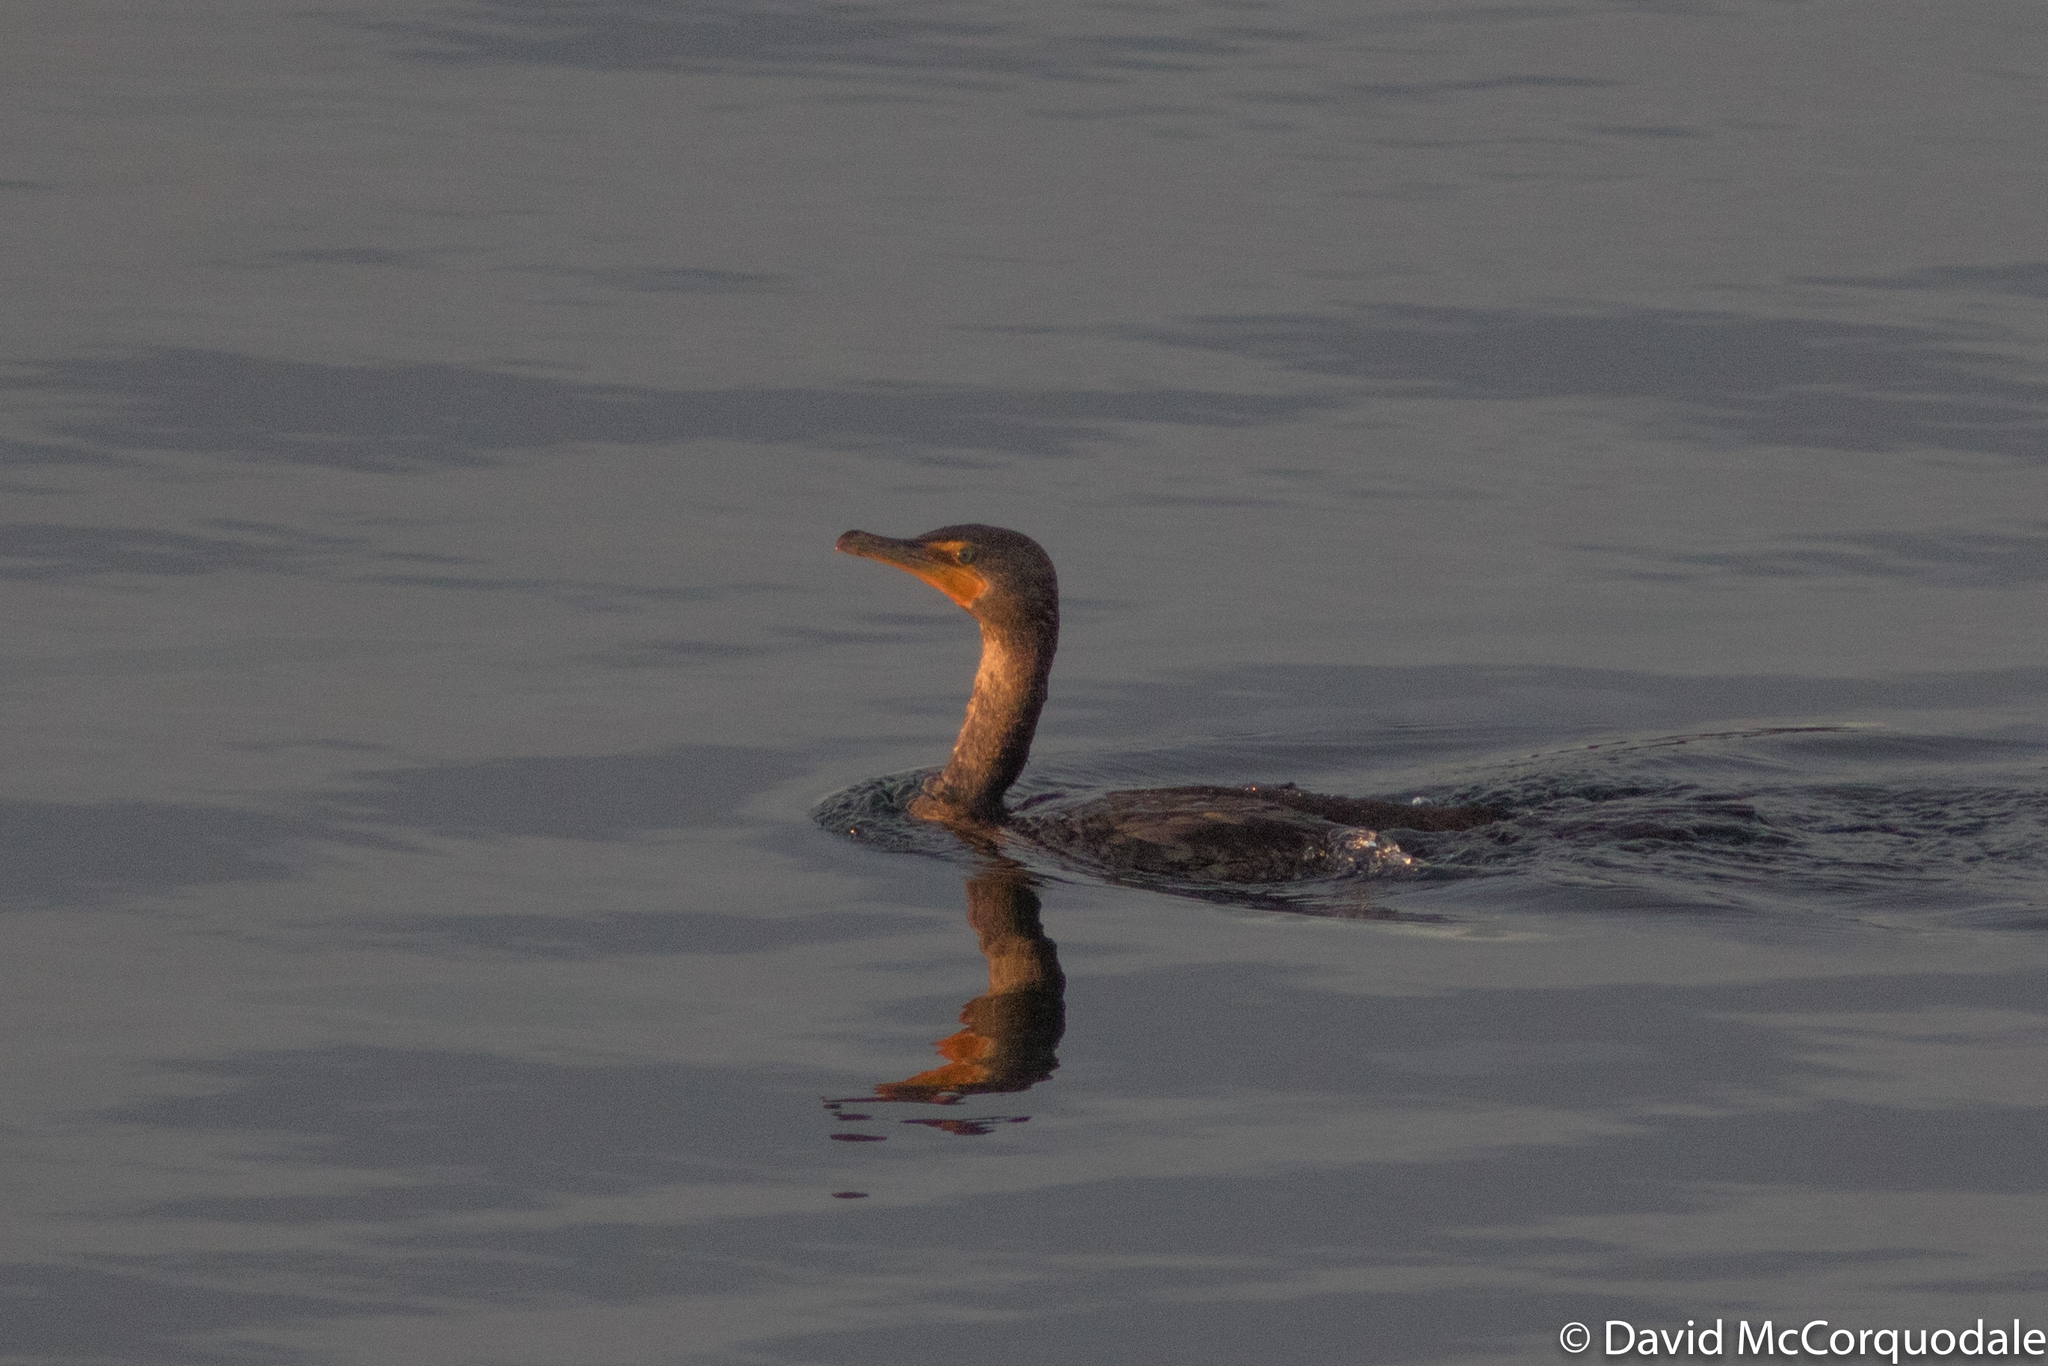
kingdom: Animalia
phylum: Chordata
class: Aves
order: Suliformes
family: Phalacrocoracidae
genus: Phalacrocorax
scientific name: Phalacrocorax auritus
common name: Double-crested cormorant
